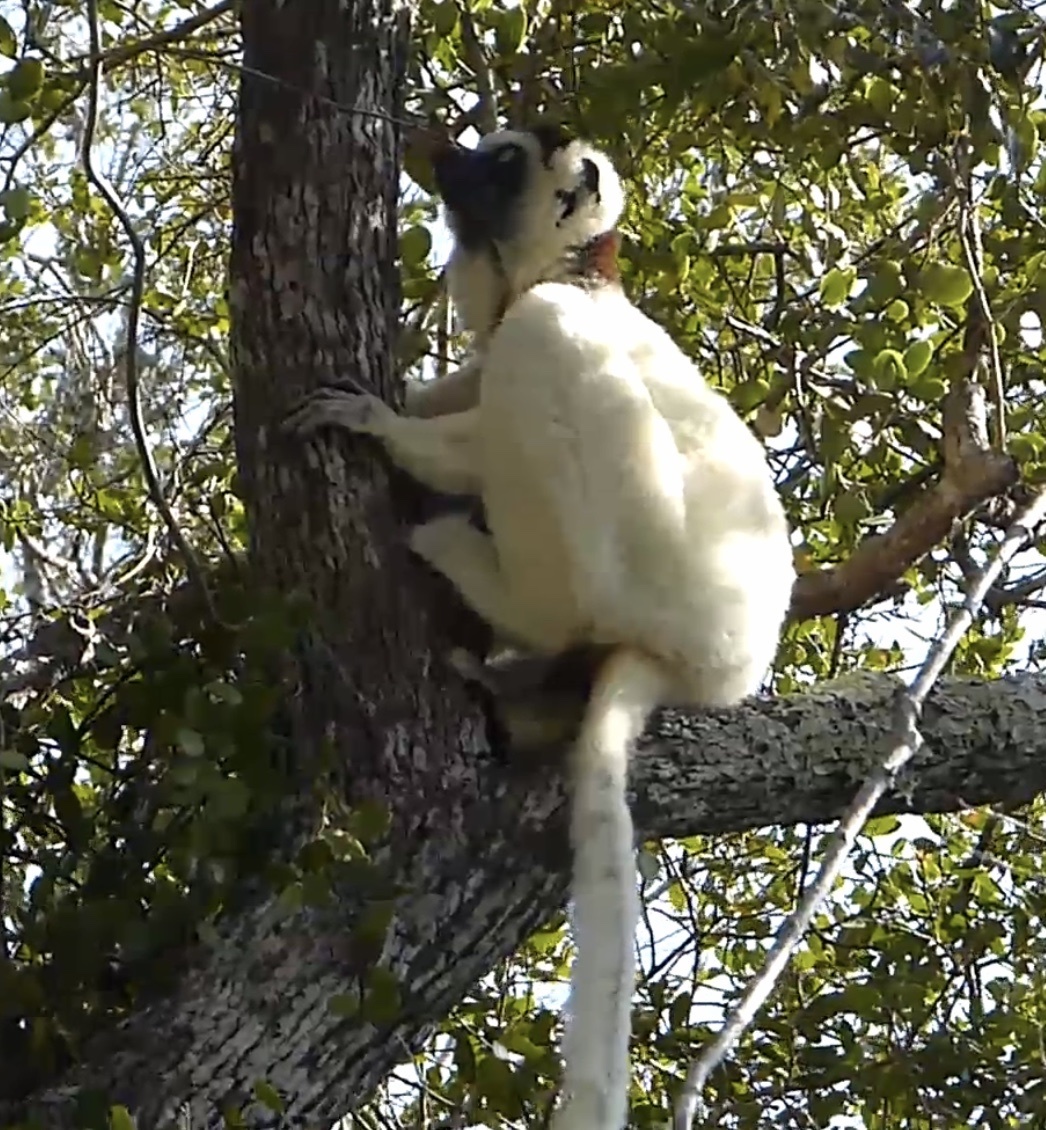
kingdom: Animalia
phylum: Chordata
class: Mammalia
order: Primates
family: Indriidae
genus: Propithecus
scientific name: Propithecus verreauxi
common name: Verreaux's sifaka
